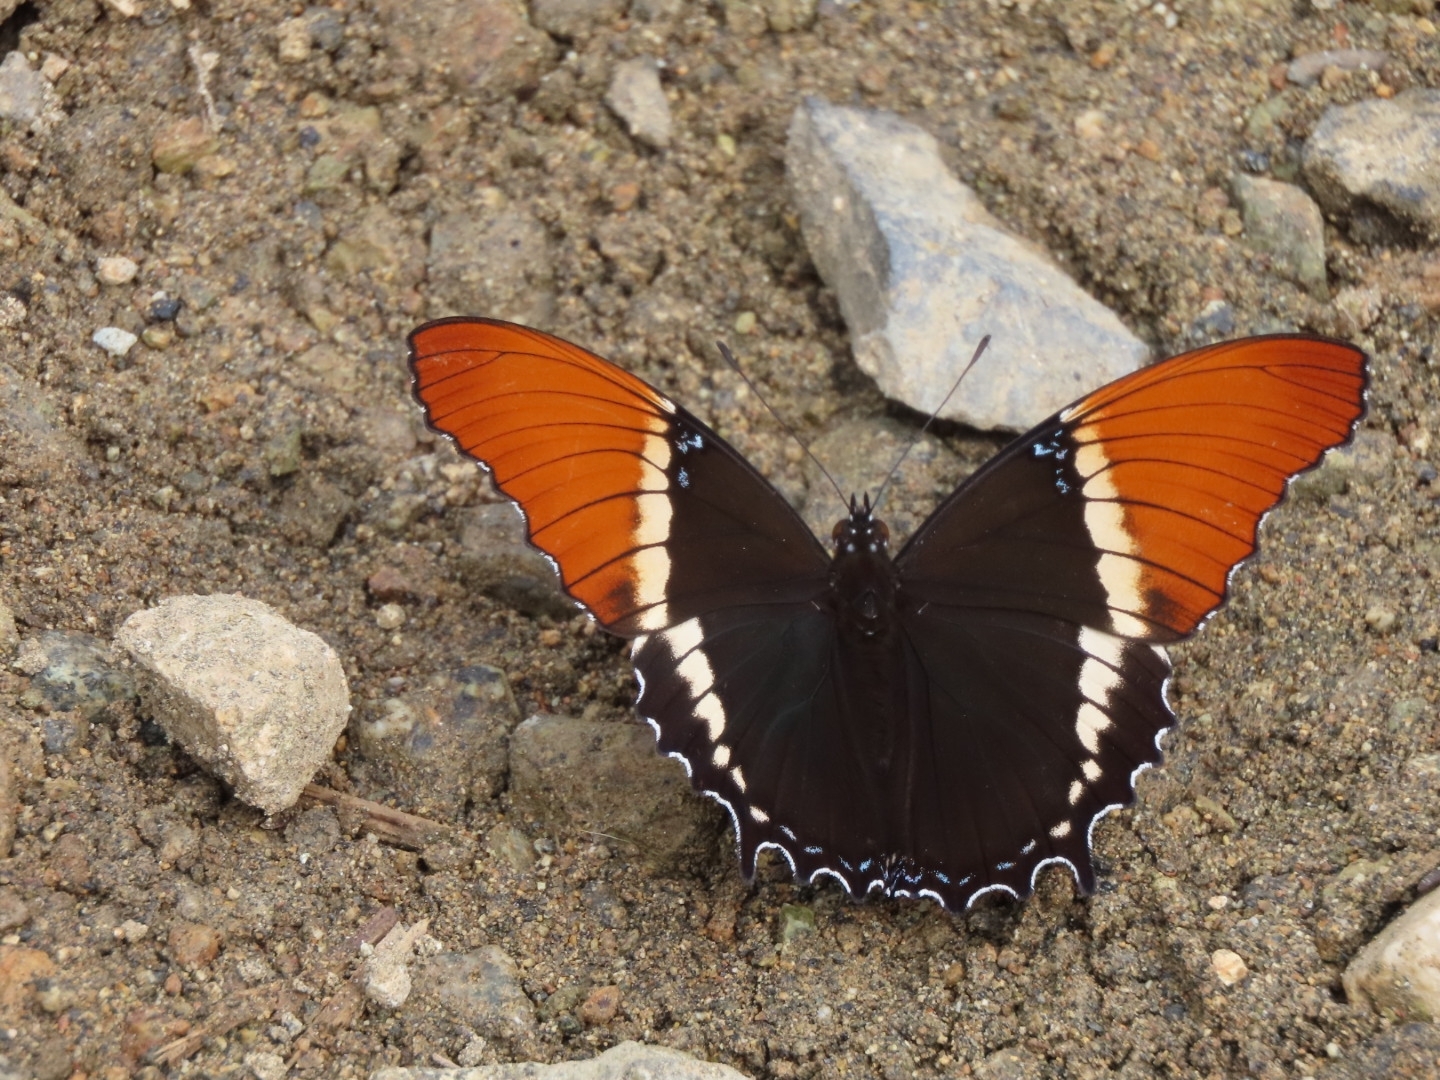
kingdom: Animalia
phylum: Arthropoda
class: Insecta
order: Lepidoptera
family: Nymphalidae
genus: Siproeta
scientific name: Siproeta epaphus
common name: Rusty-tipped page
